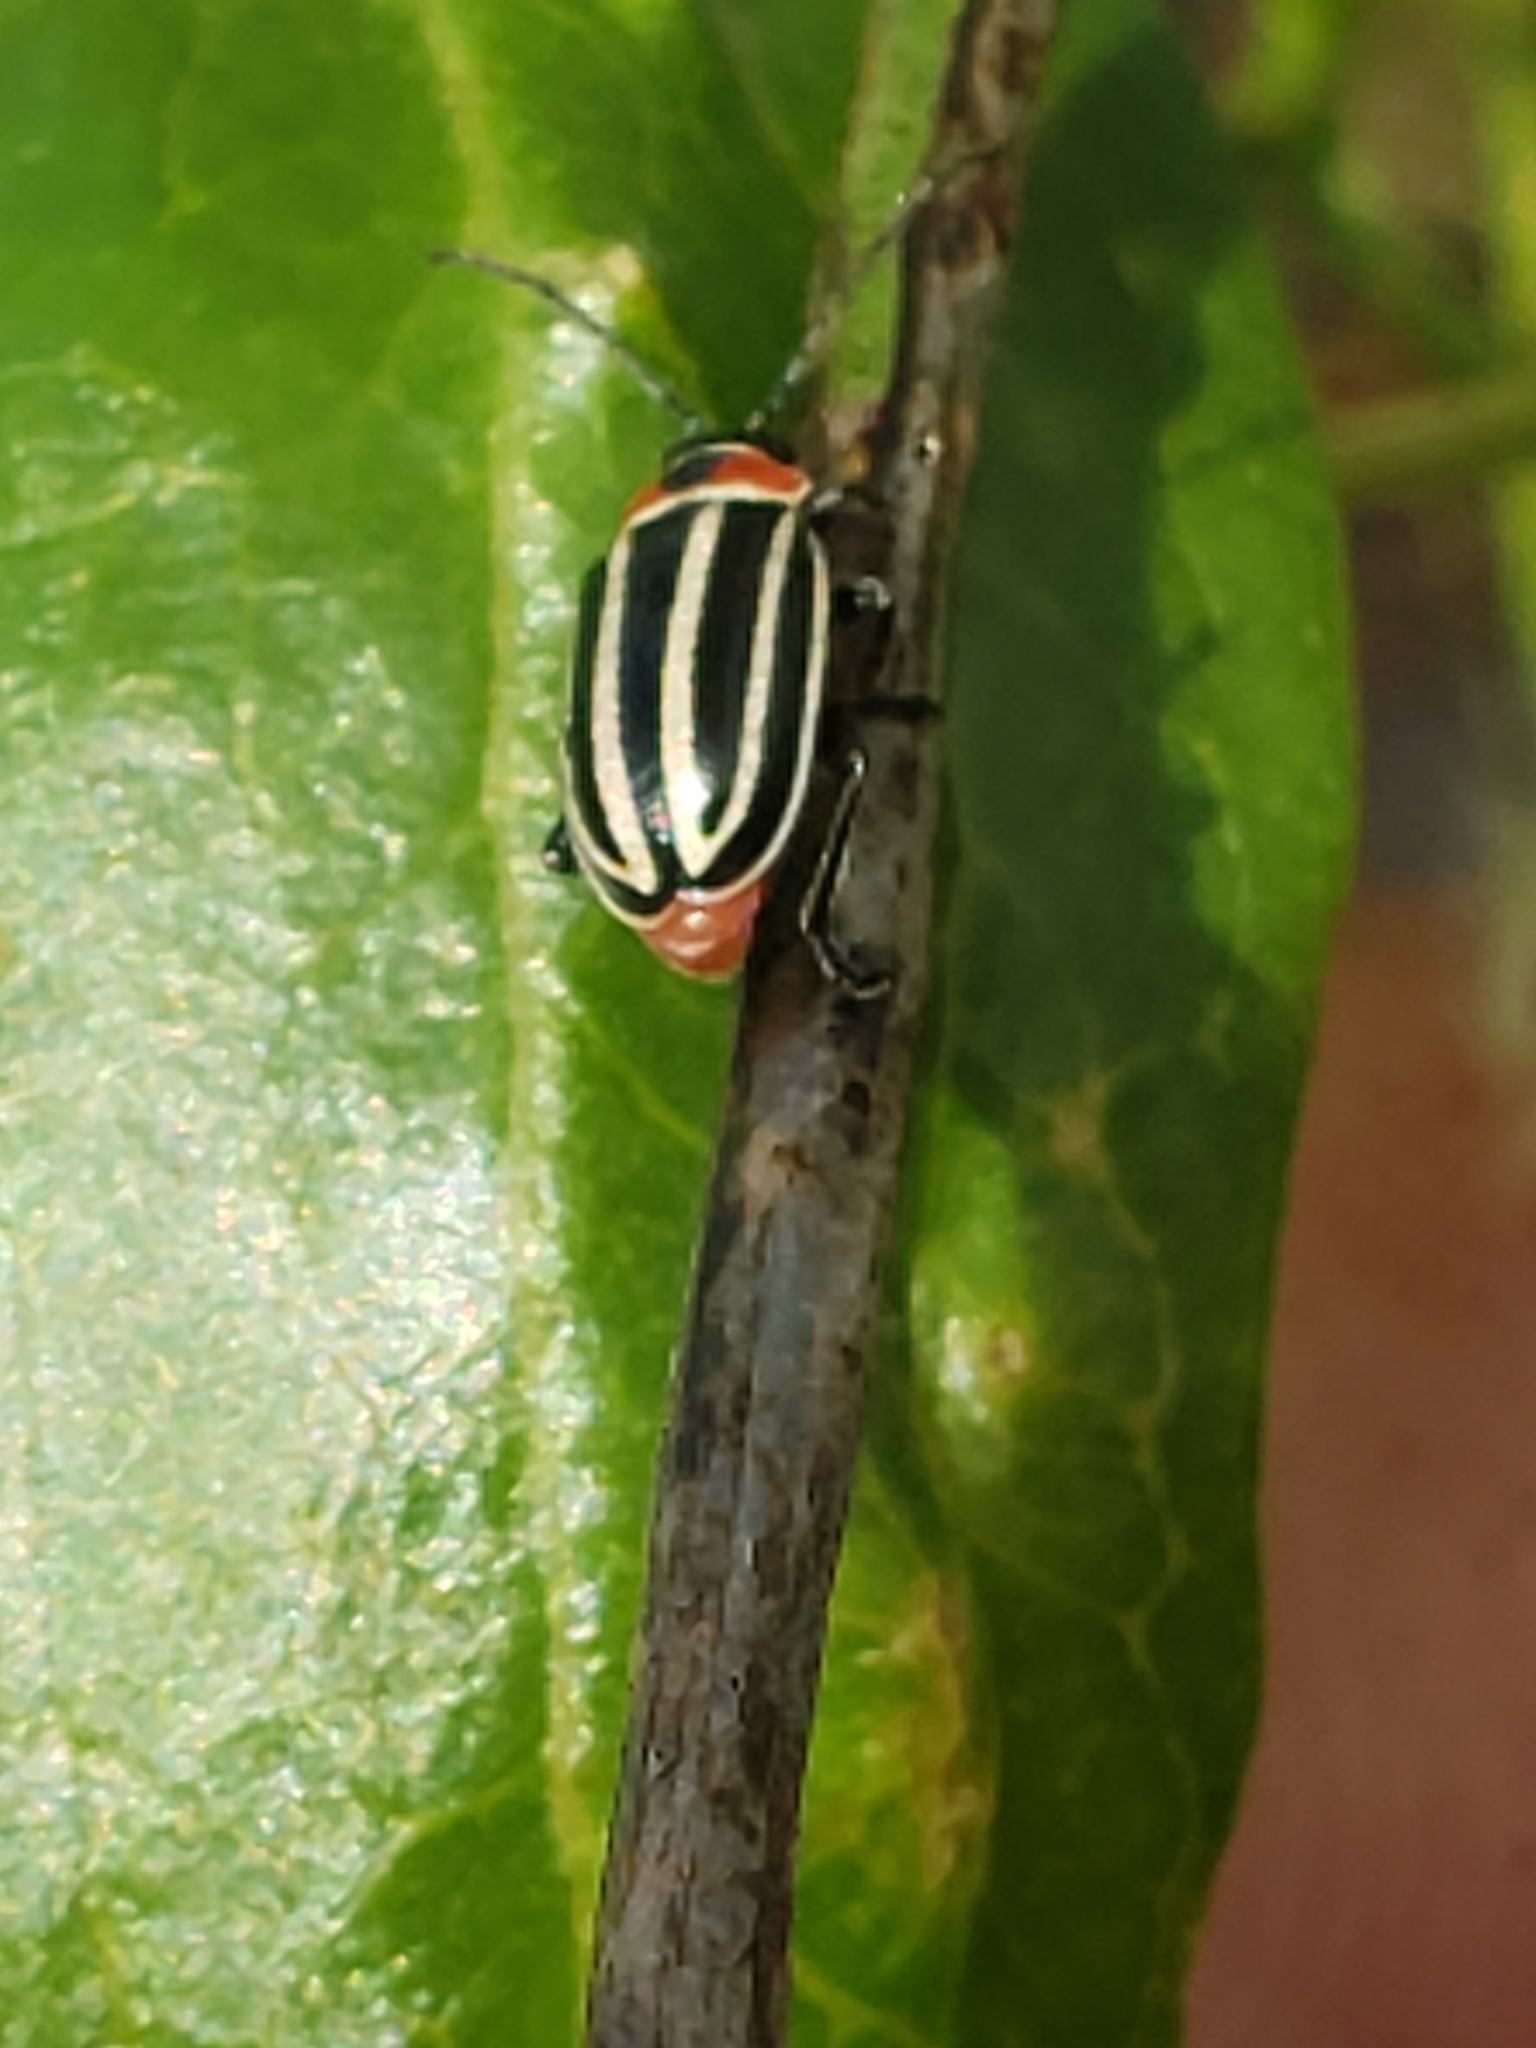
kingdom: Animalia
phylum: Arthropoda
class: Insecta
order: Coleoptera
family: Chrysomelidae
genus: Disonycha
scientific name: Disonycha pensylvanica
